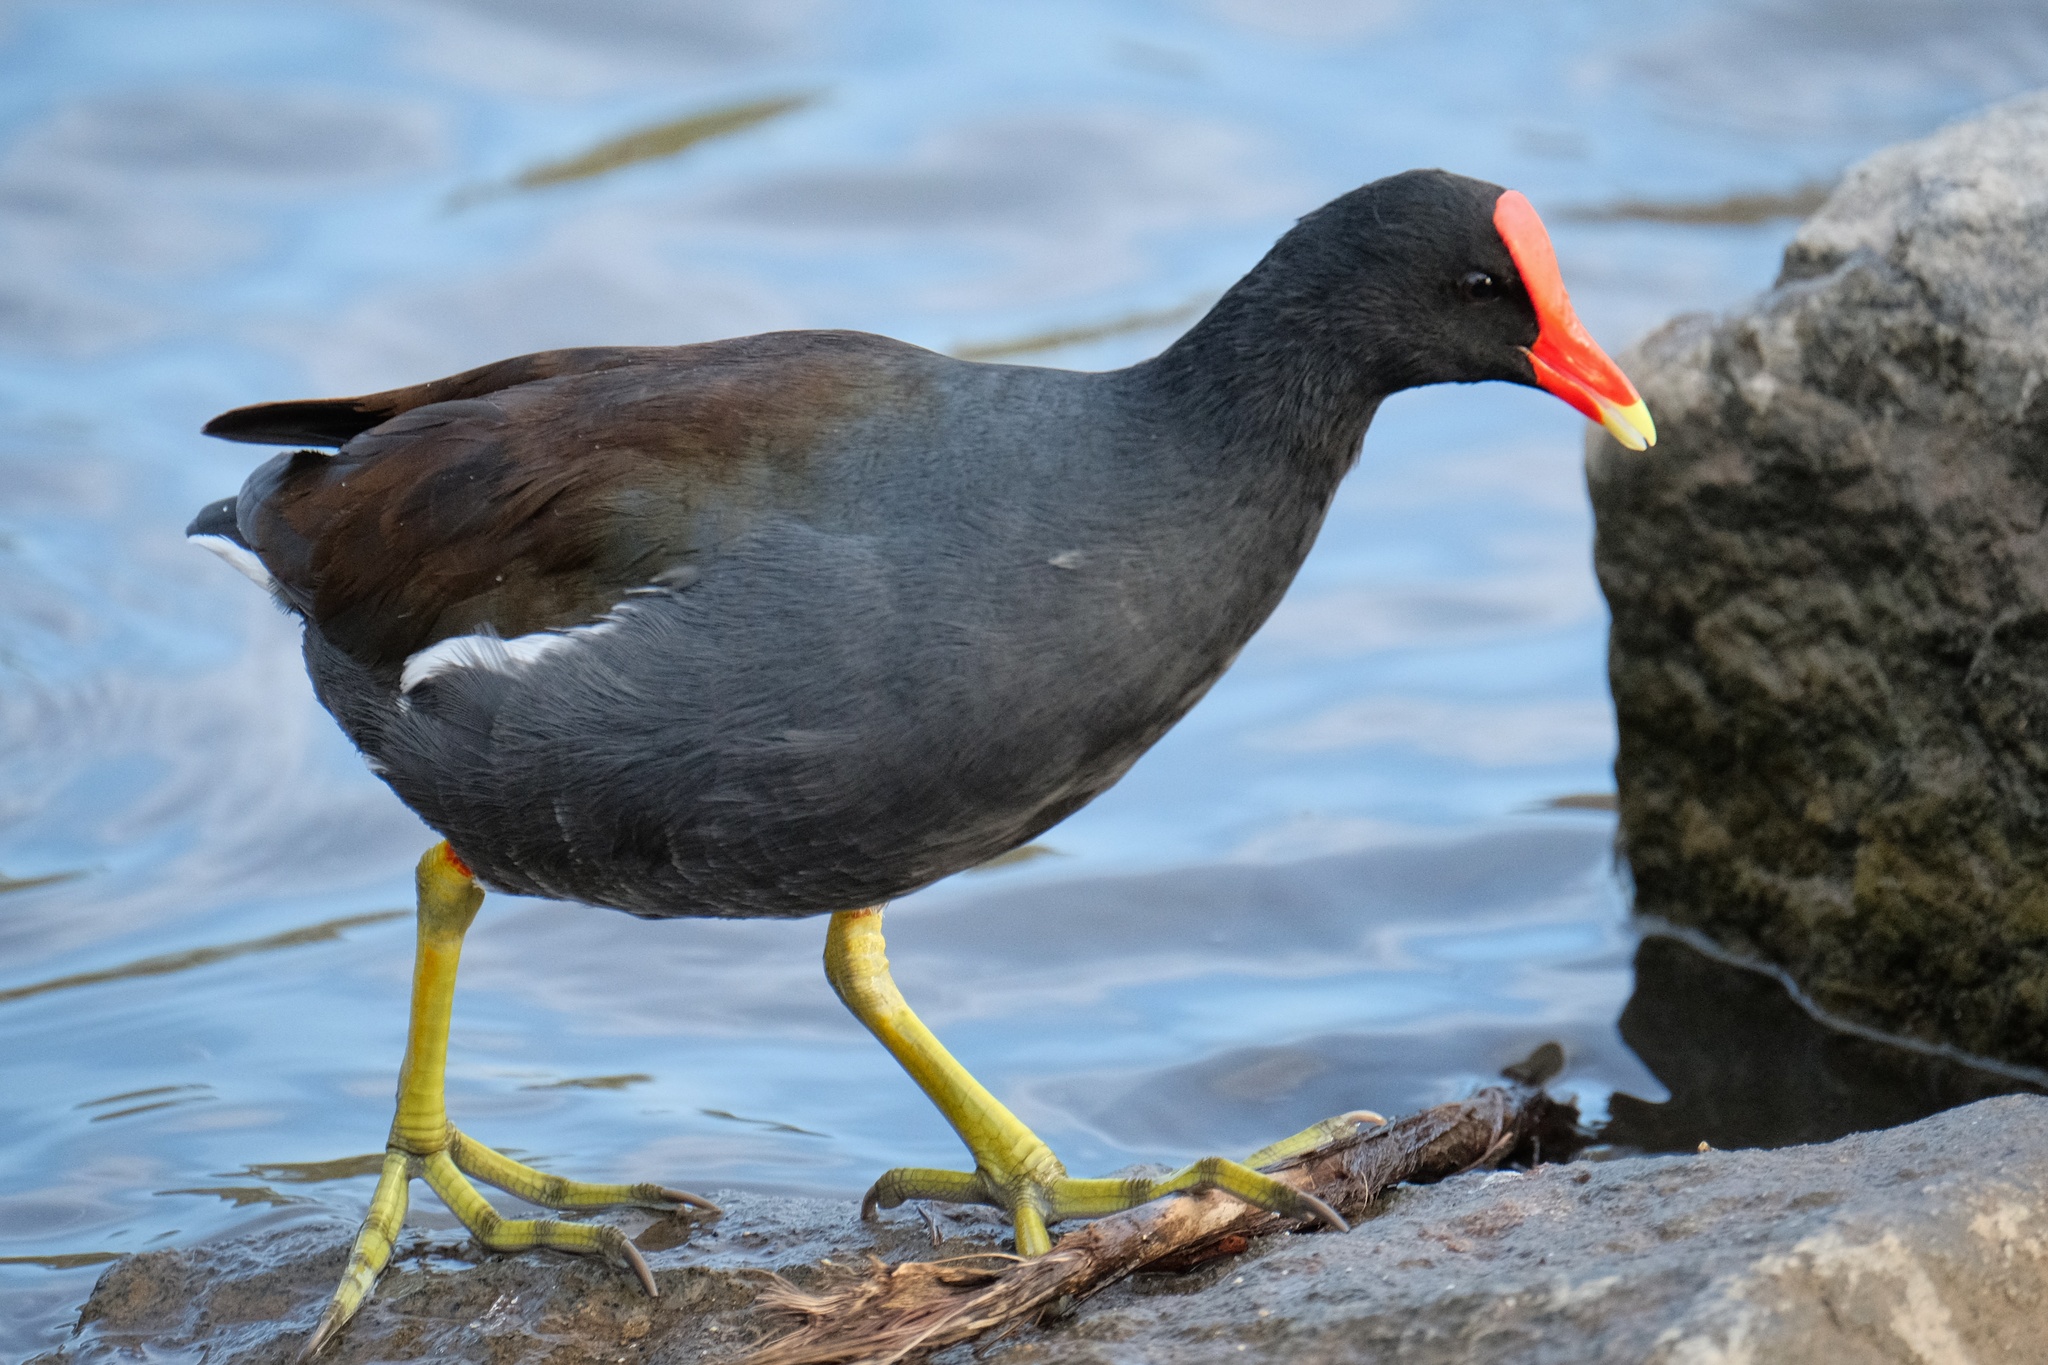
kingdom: Animalia
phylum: Chordata
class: Aves
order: Gruiformes
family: Rallidae
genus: Gallinula
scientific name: Gallinula chloropus
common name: Common moorhen
